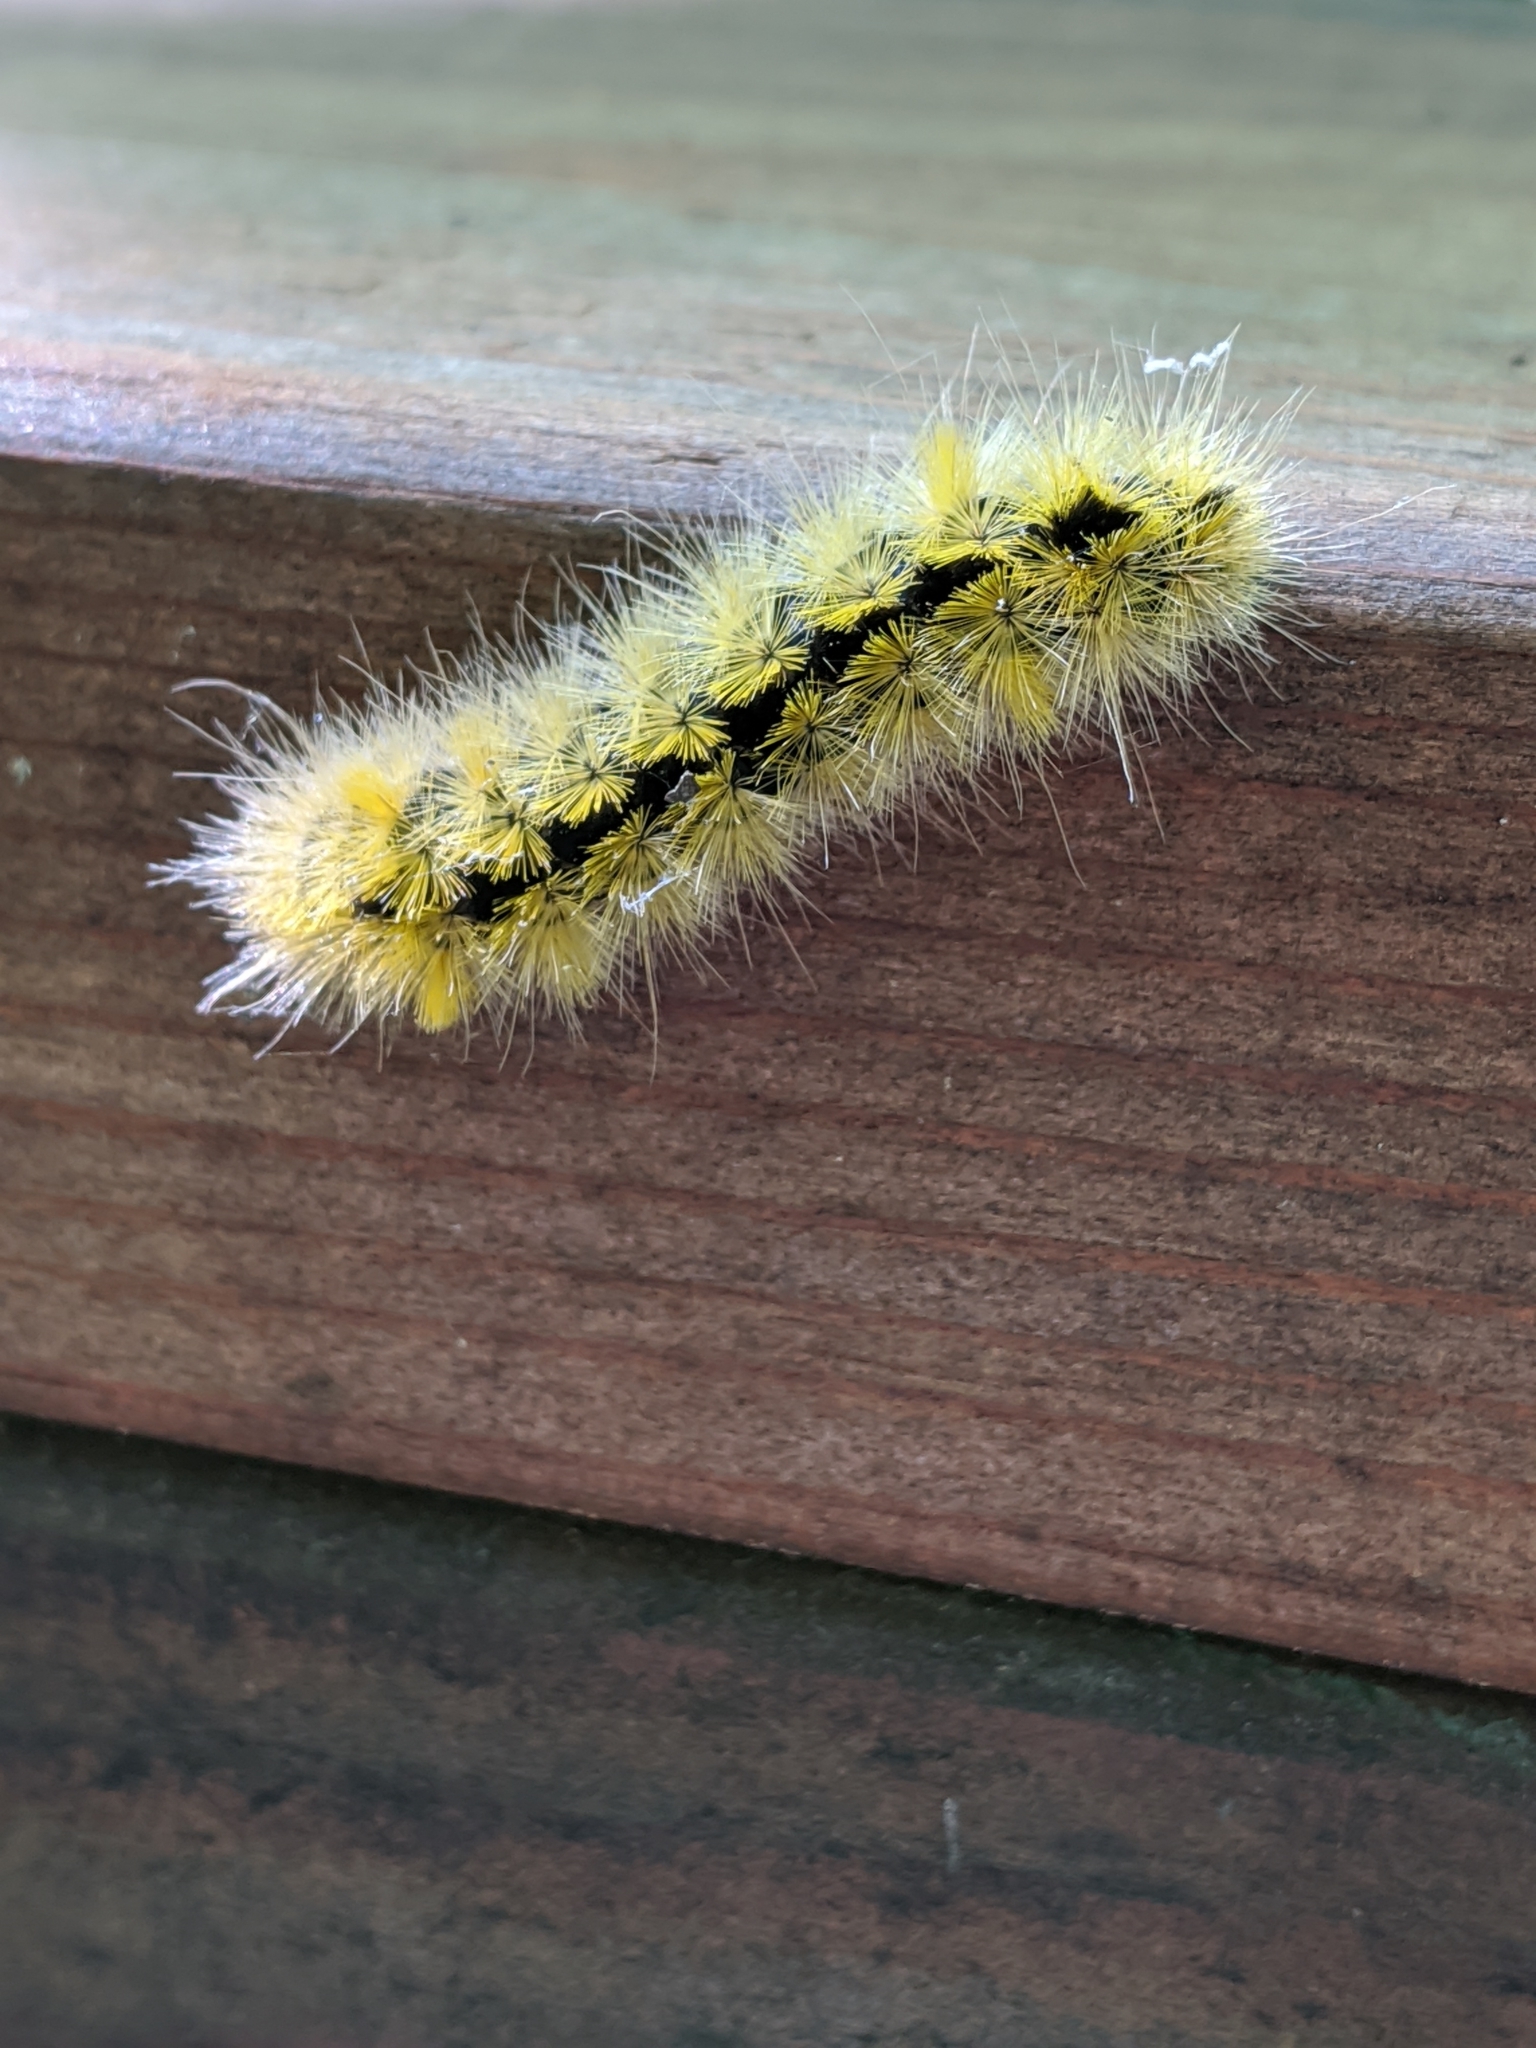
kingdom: Animalia
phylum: Arthropoda
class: Insecta
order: Lepidoptera
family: Erebidae
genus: Lophocampa
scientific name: Lophocampa argentata
